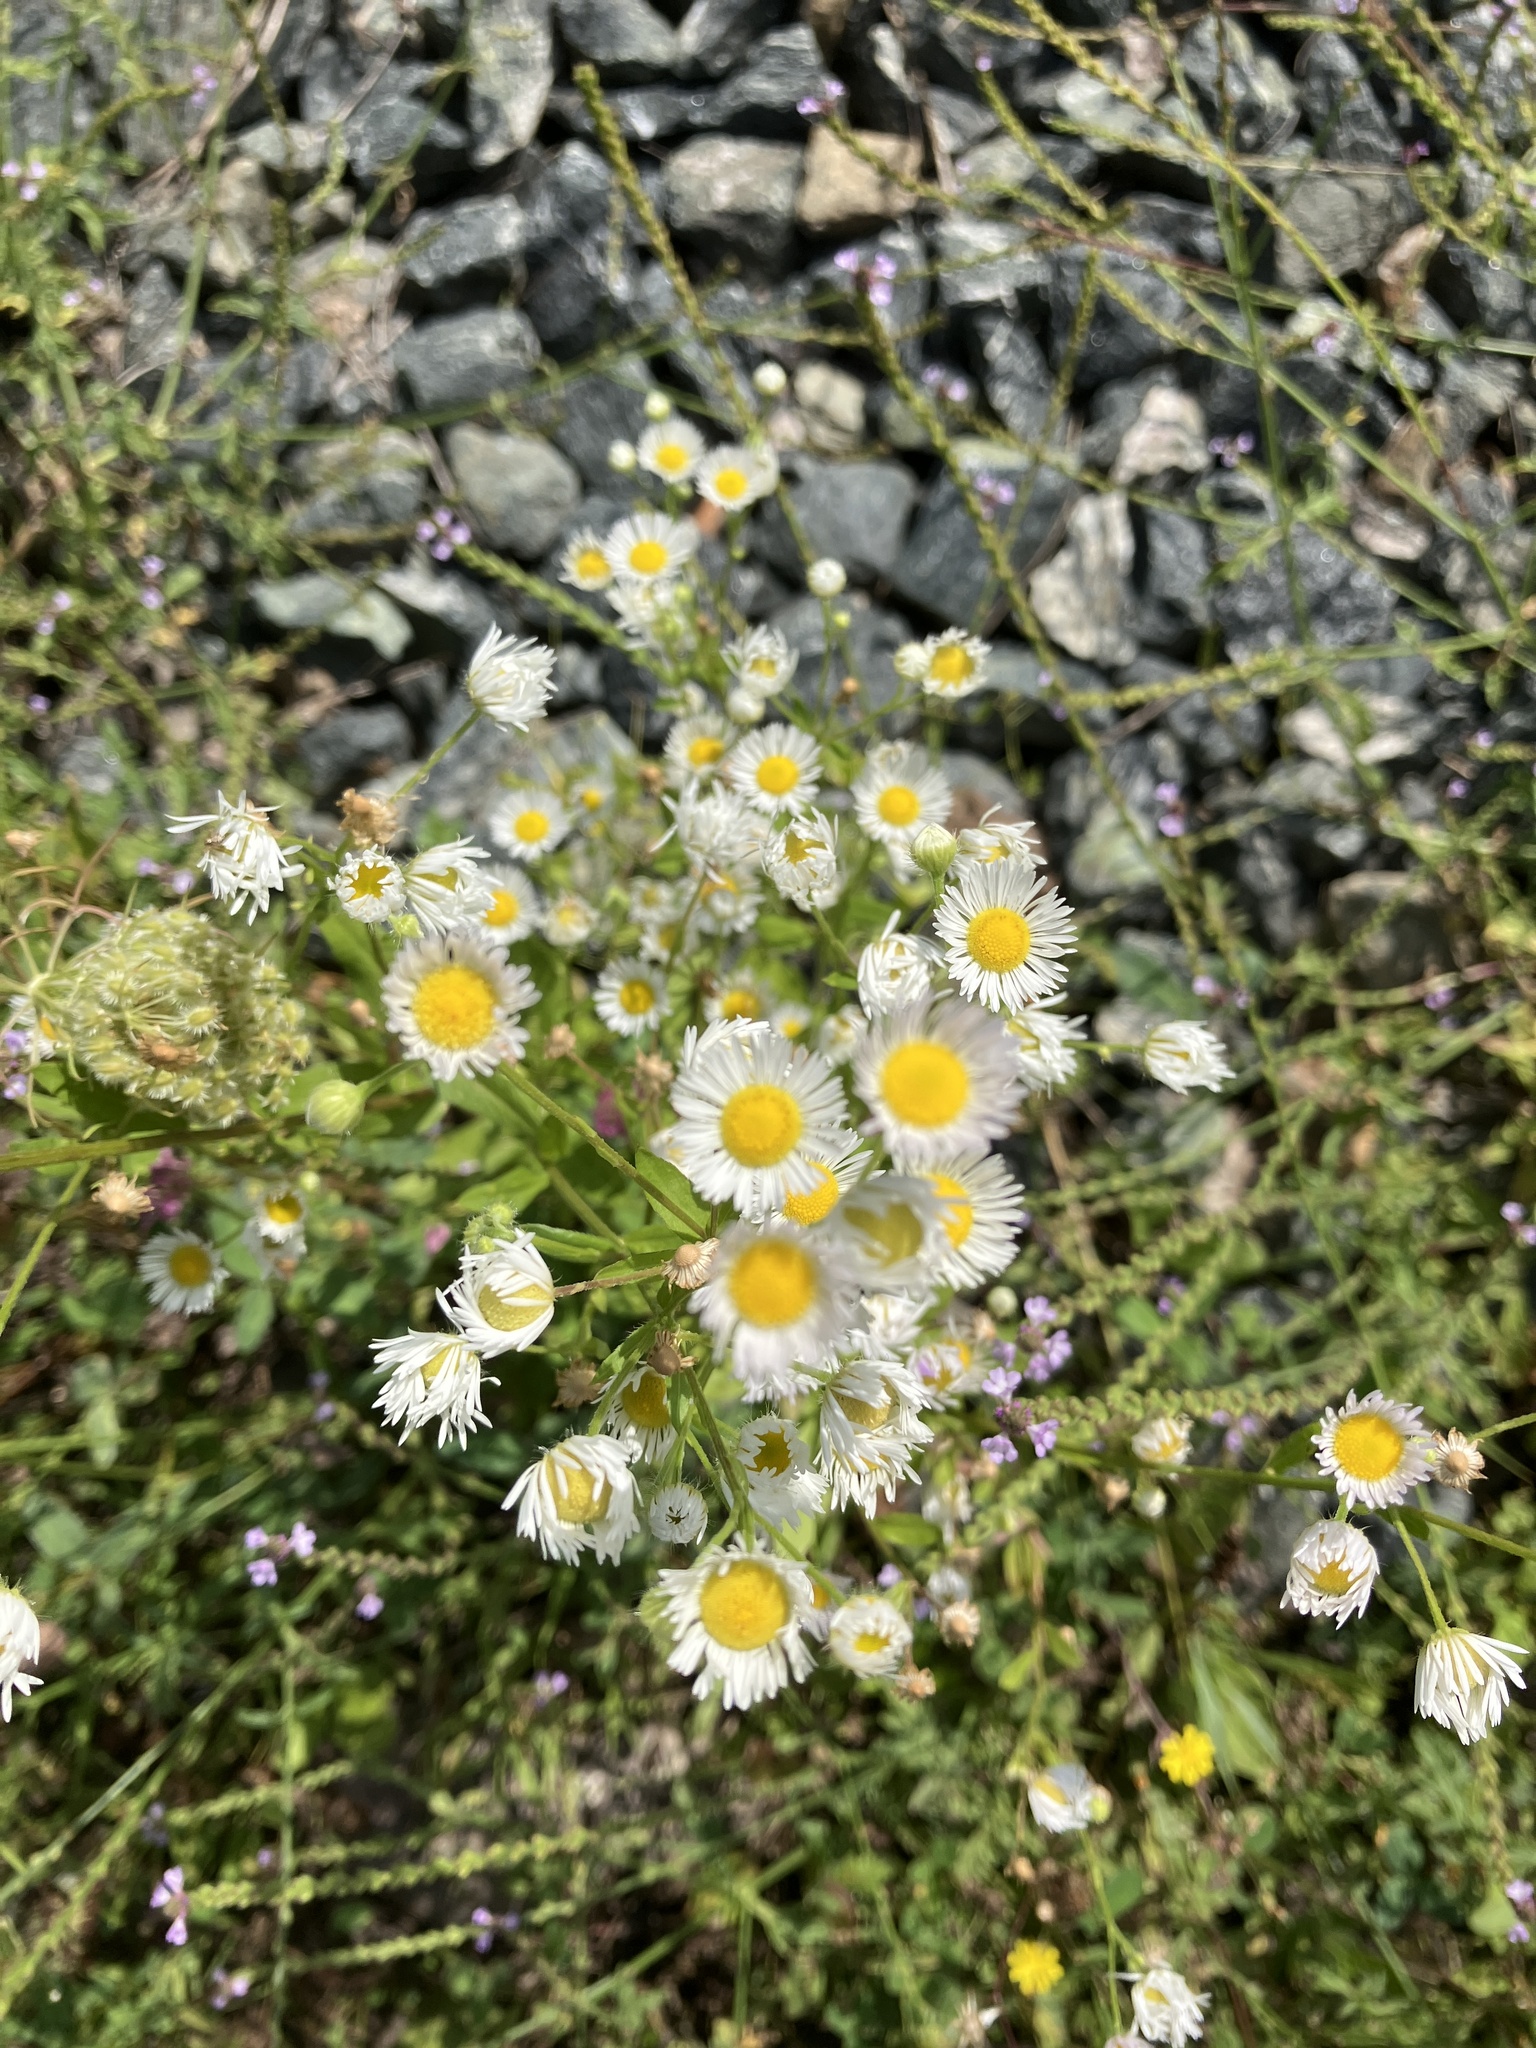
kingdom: Plantae
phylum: Tracheophyta
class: Magnoliopsida
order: Asterales
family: Asteraceae
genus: Erigeron
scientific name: Erigeron annuus
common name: Tall fleabane
